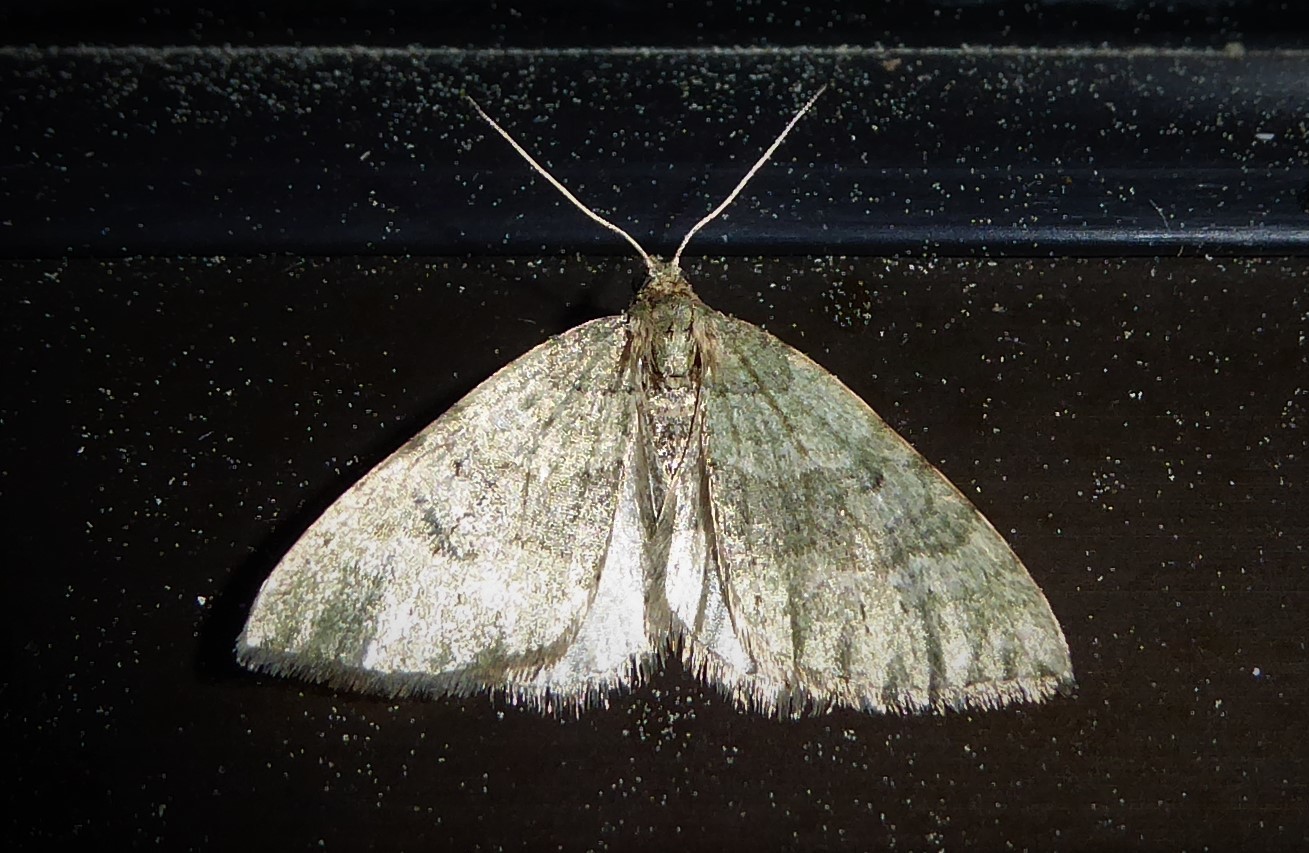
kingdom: Animalia
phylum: Arthropoda
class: Insecta
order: Lepidoptera
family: Geometridae
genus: Epyaxa
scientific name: Epyaxa rosearia
